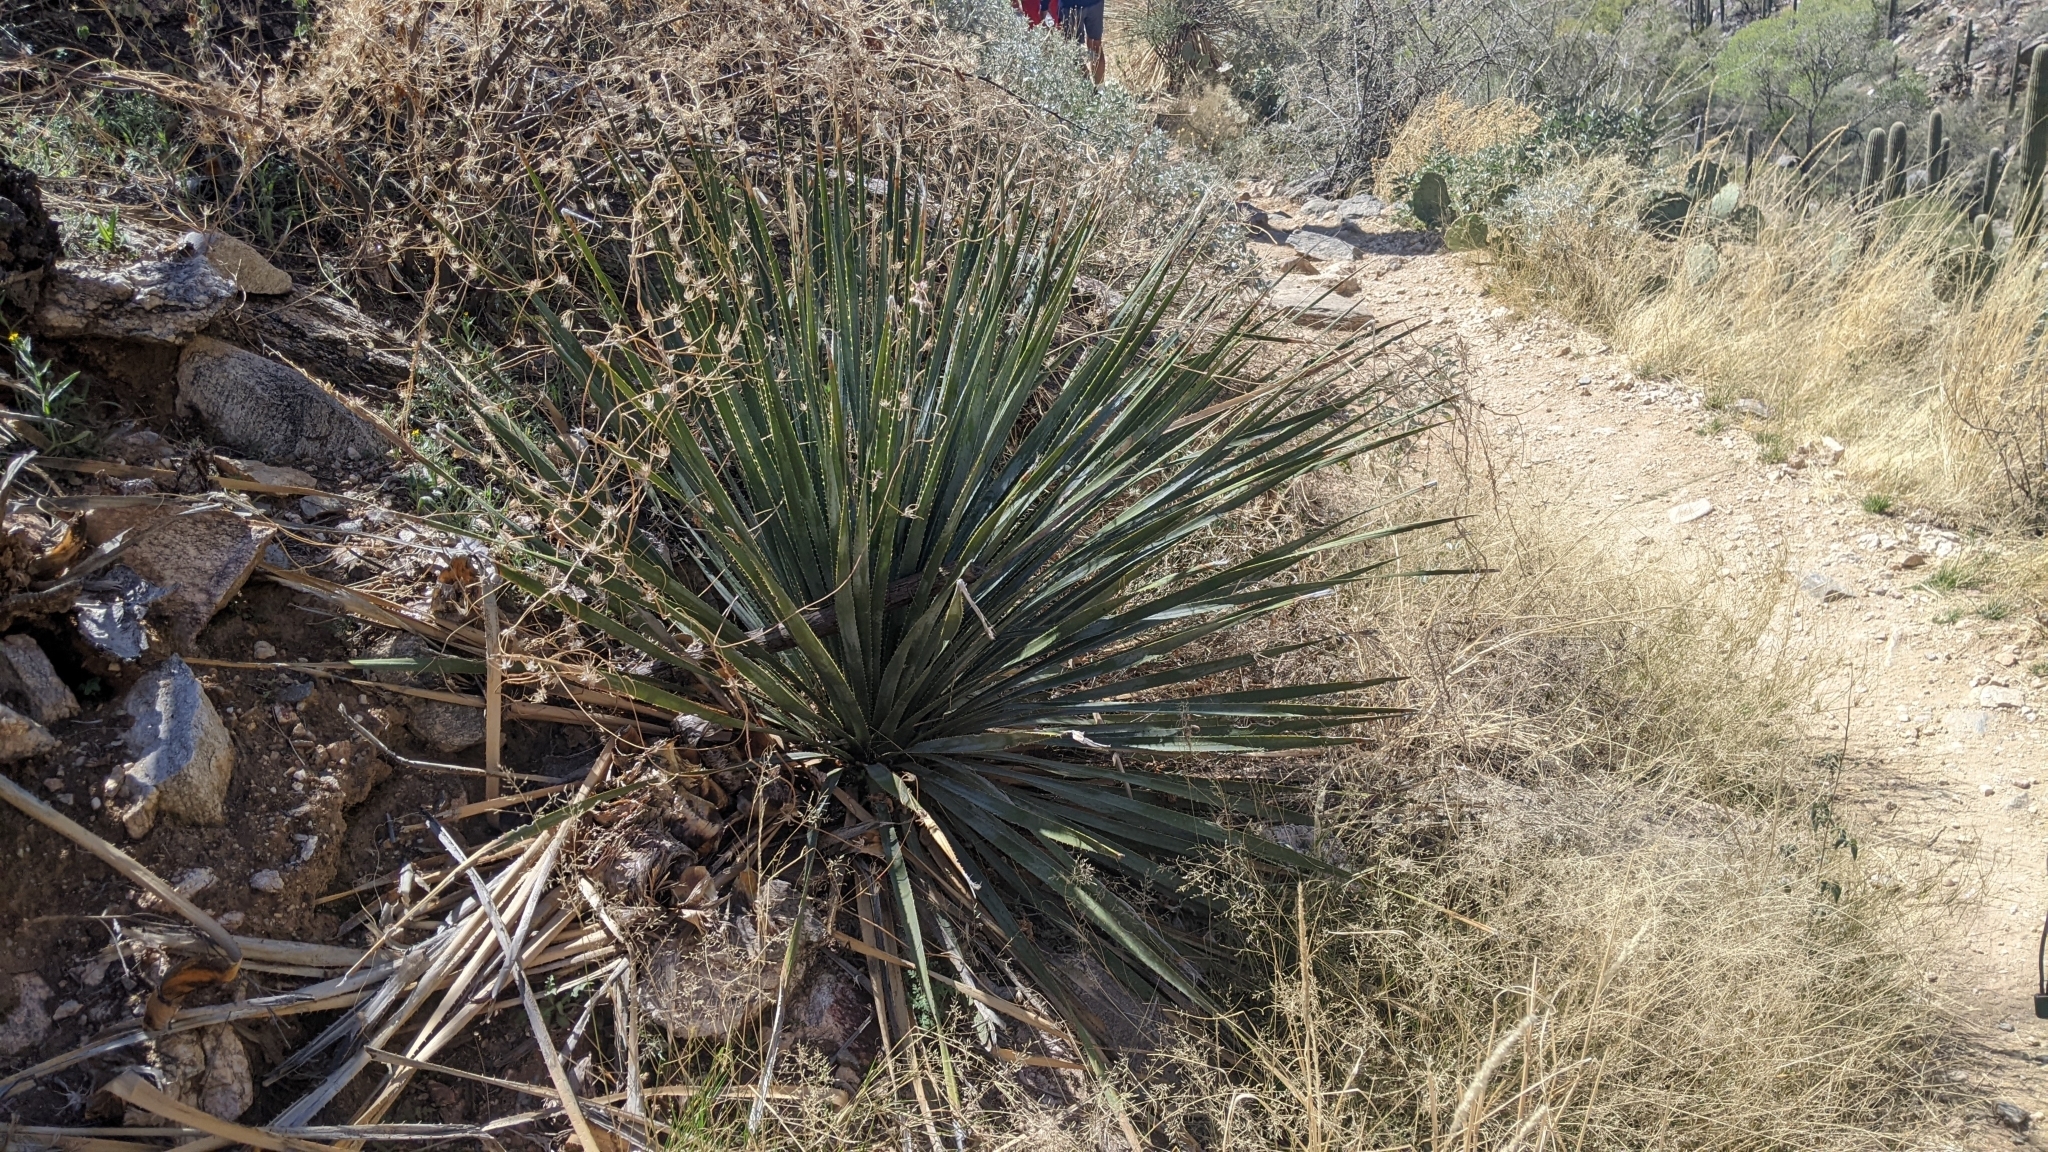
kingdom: Plantae
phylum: Tracheophyta
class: Liliopsida
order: Asparagales
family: Asparagaceae
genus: Dasylirion
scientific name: Dasylirion wheeleri
